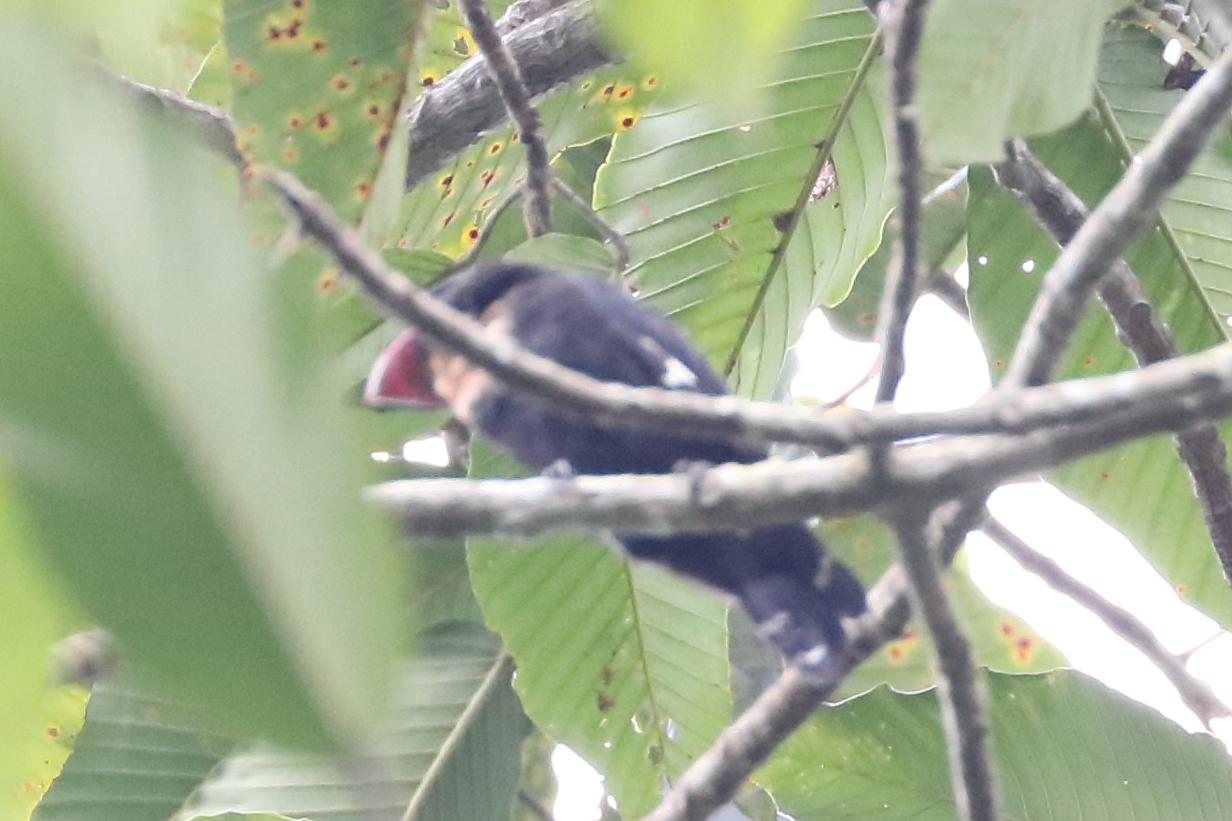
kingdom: Animalia
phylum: Chordata
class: Aves
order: Passeriformes
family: Eurylaimidae
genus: Corydon
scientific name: Corydon sumatranus
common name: Dusky broadbill
